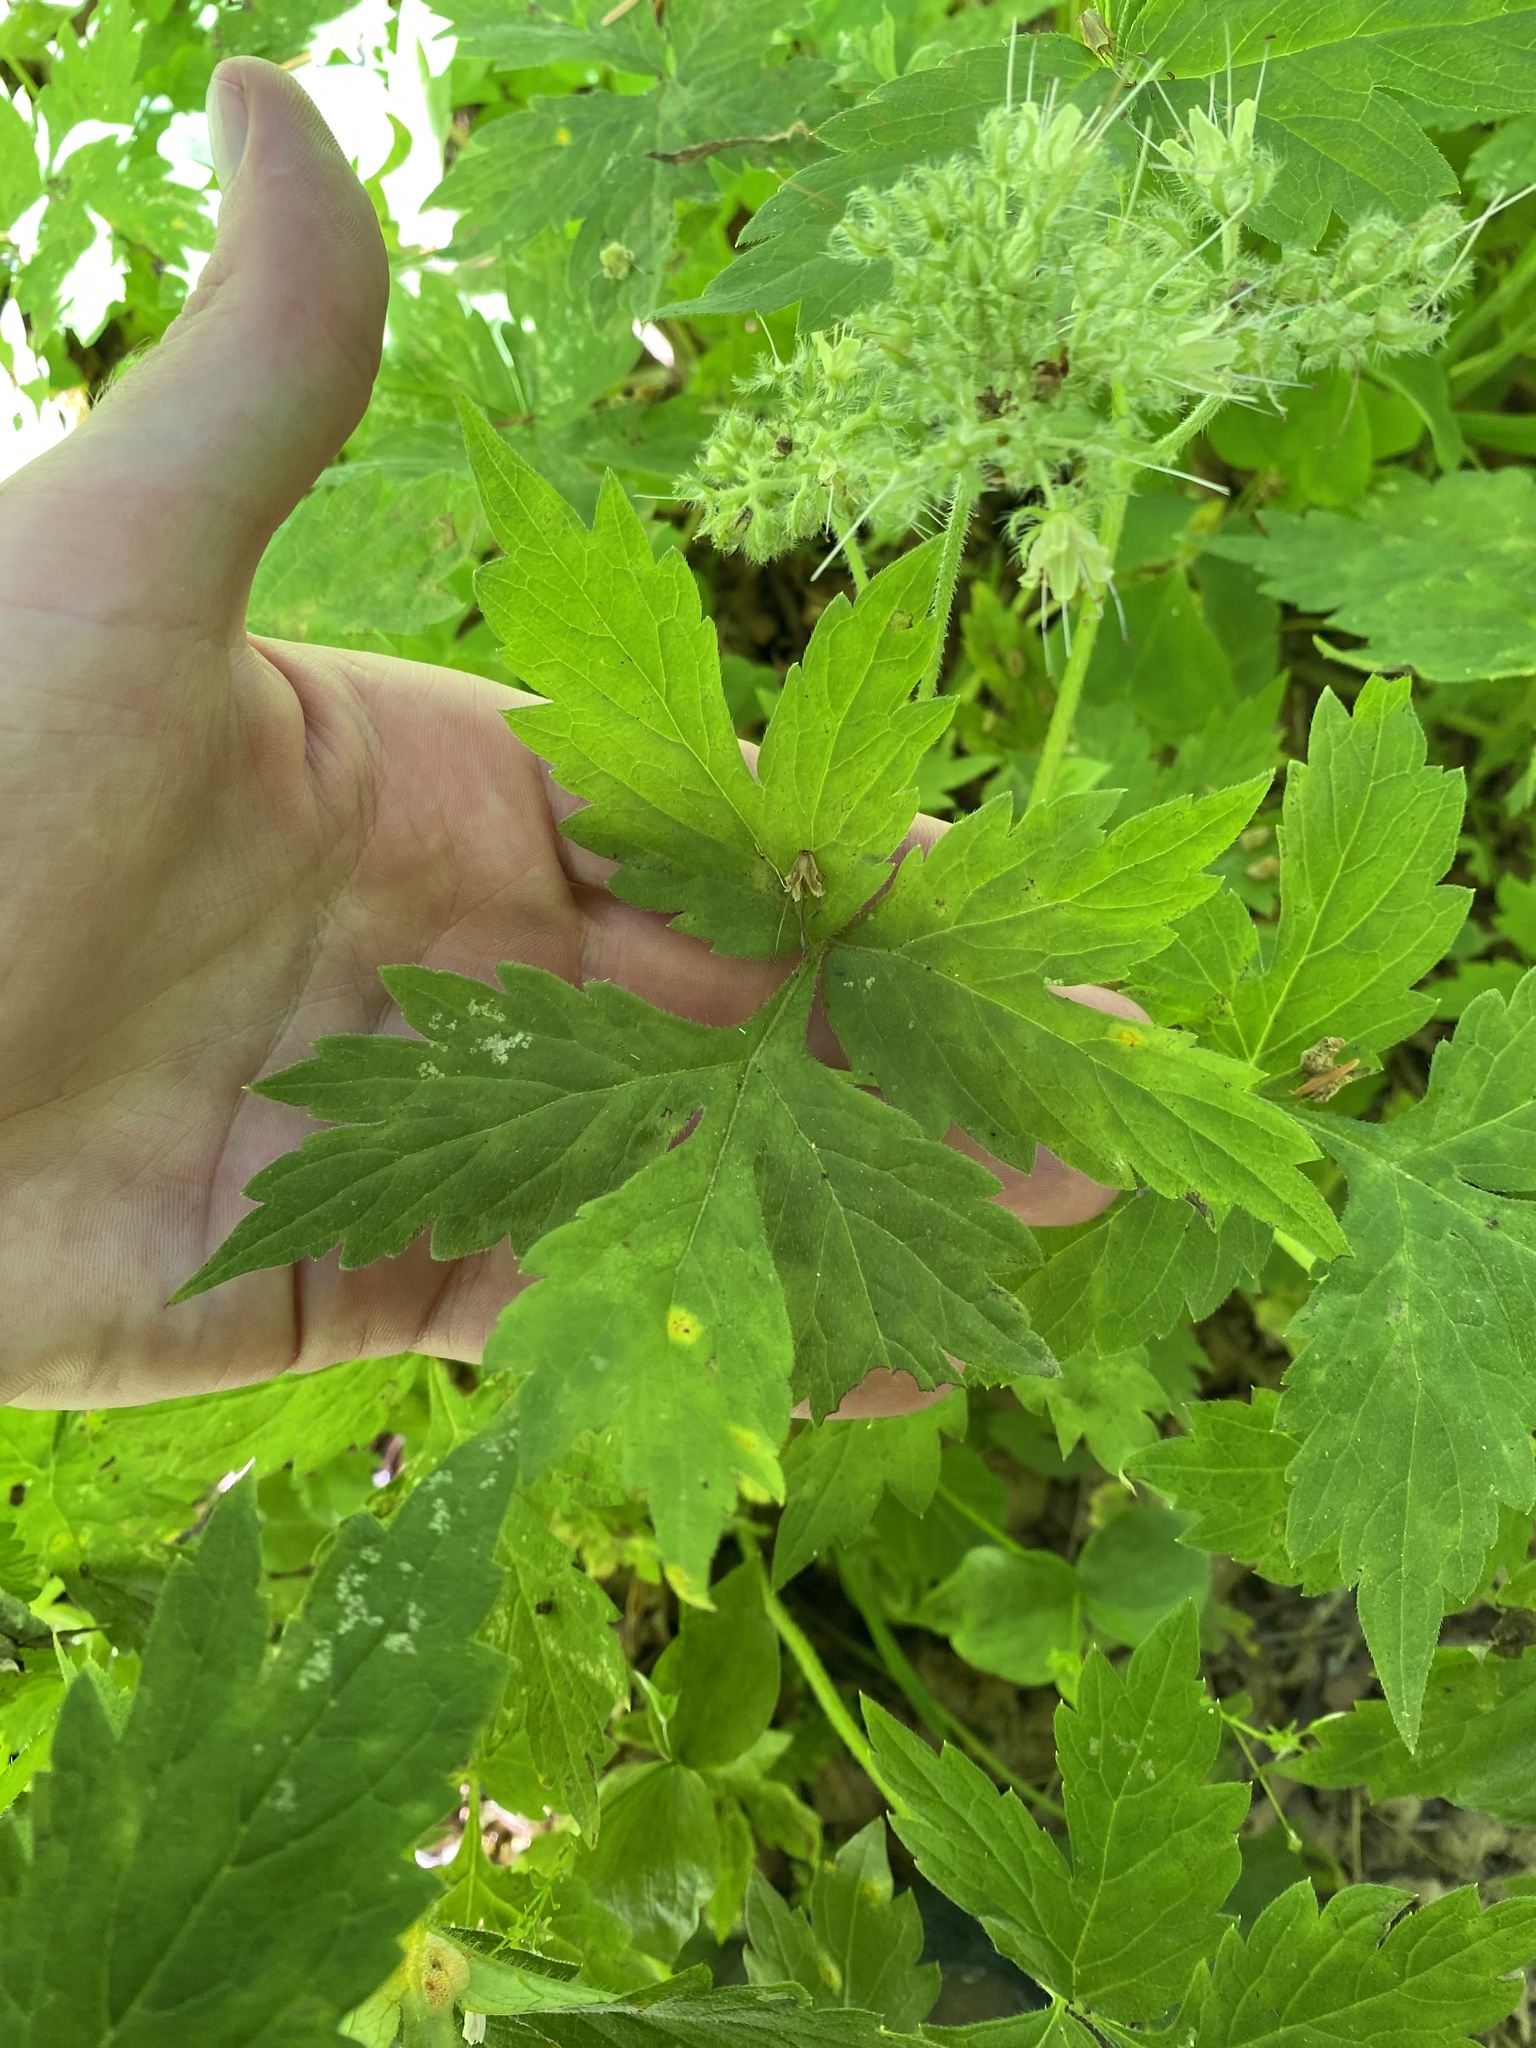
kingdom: Plantae
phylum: Tracheophyta
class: Magnoliopsida
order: Boraginales
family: Hydrophyllaceae
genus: Hydrophyllum
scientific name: Hydrophyllum tenuipes
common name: Pacific waterleaf
